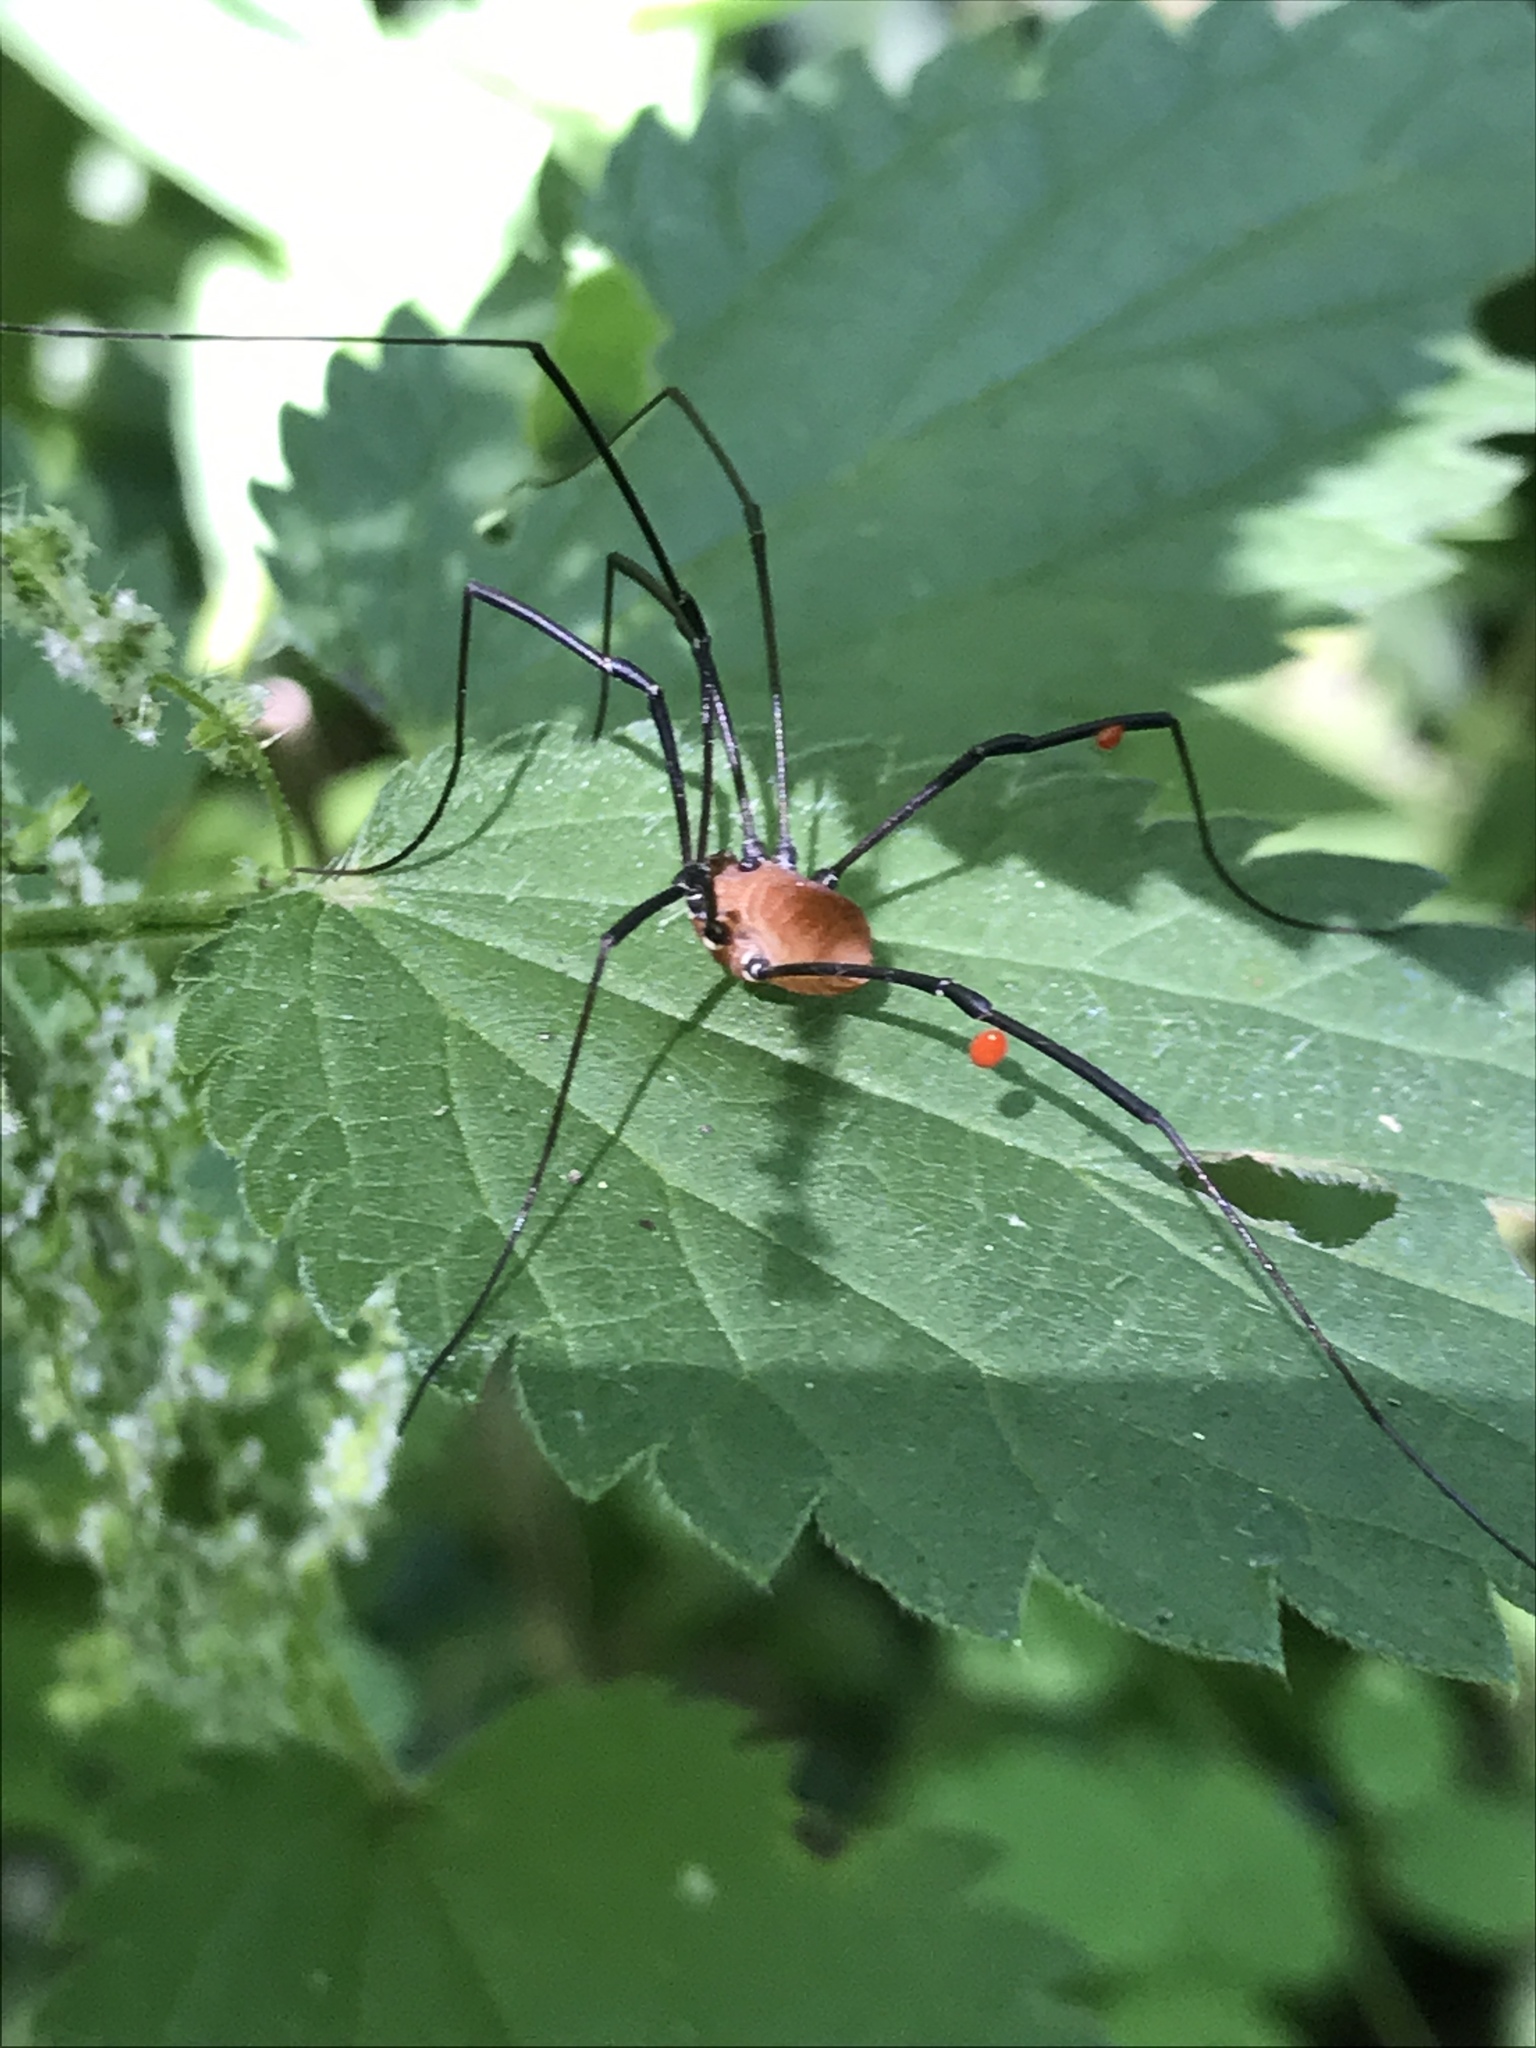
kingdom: Animalia
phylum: Arthropoda
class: Arachnida
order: Opiliones
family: Sclerosomatidae
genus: Leiobunum
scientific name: Leiobunum verrucosum
